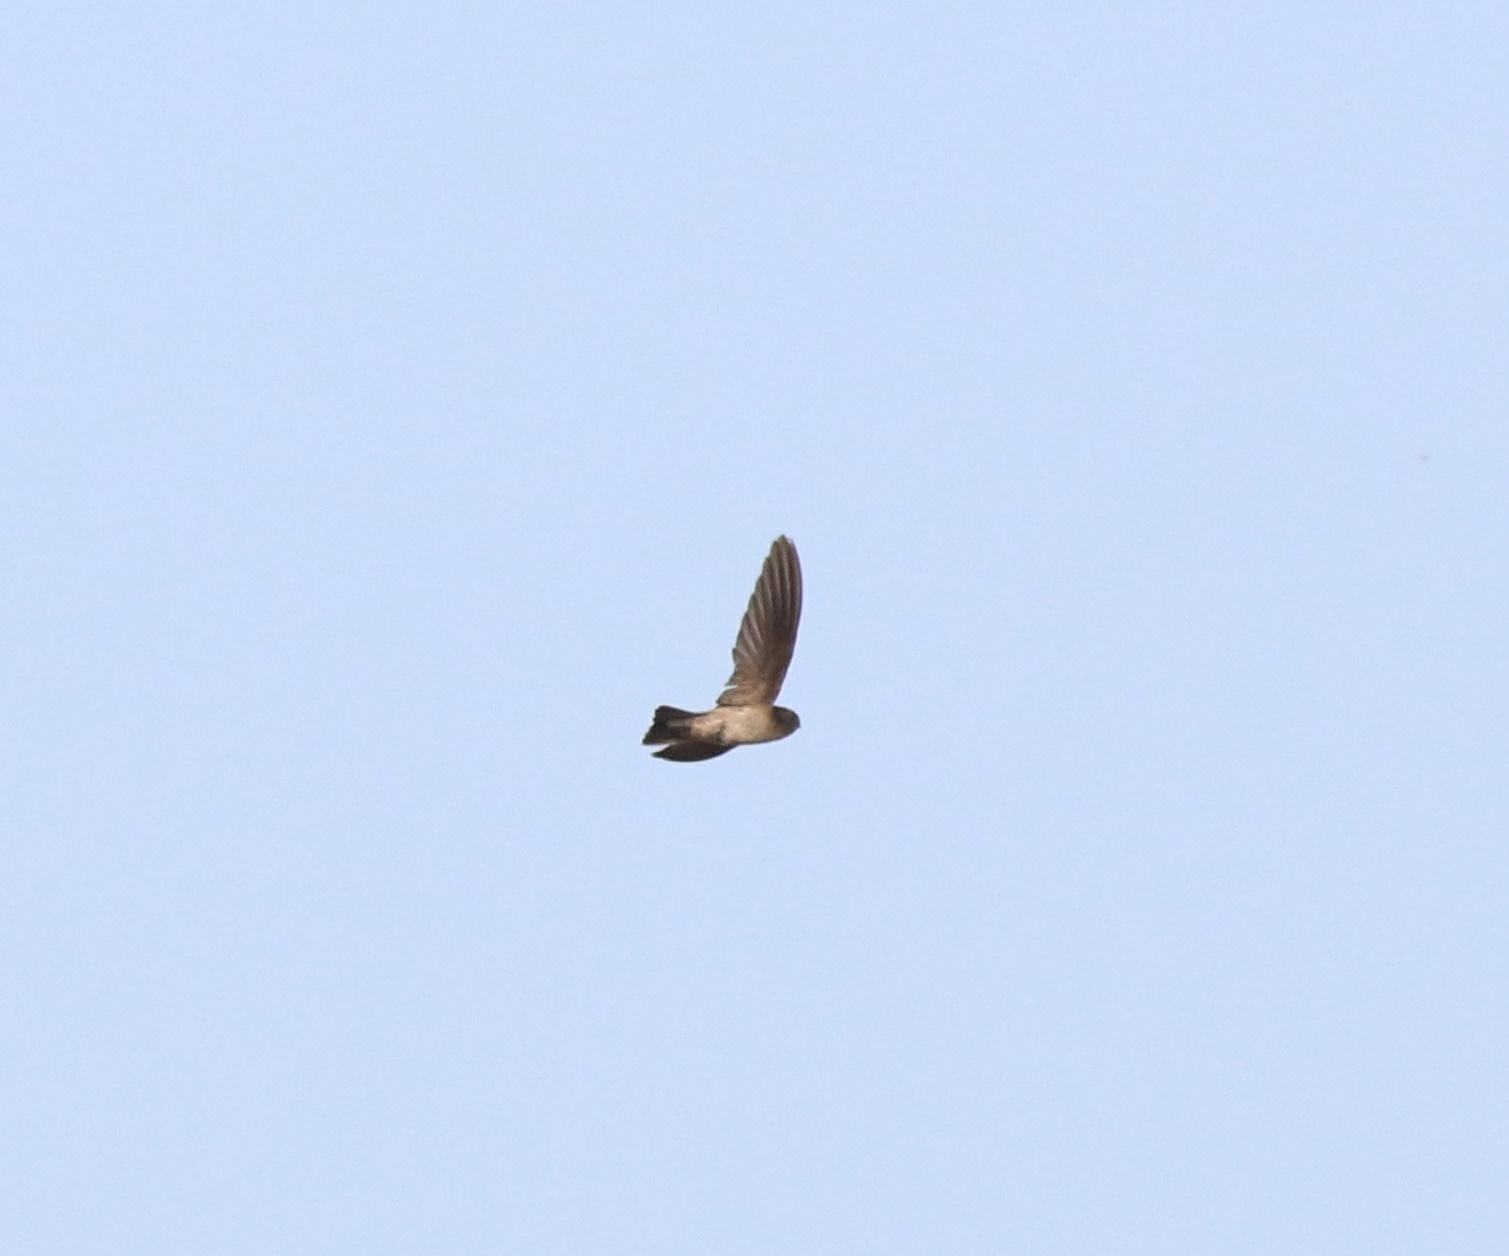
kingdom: Animalia
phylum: Chordata
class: Aves
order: Apodiformes
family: Apodidae
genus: Aerodramus
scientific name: Aerodramus unicolor
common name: Indian swiftlet
